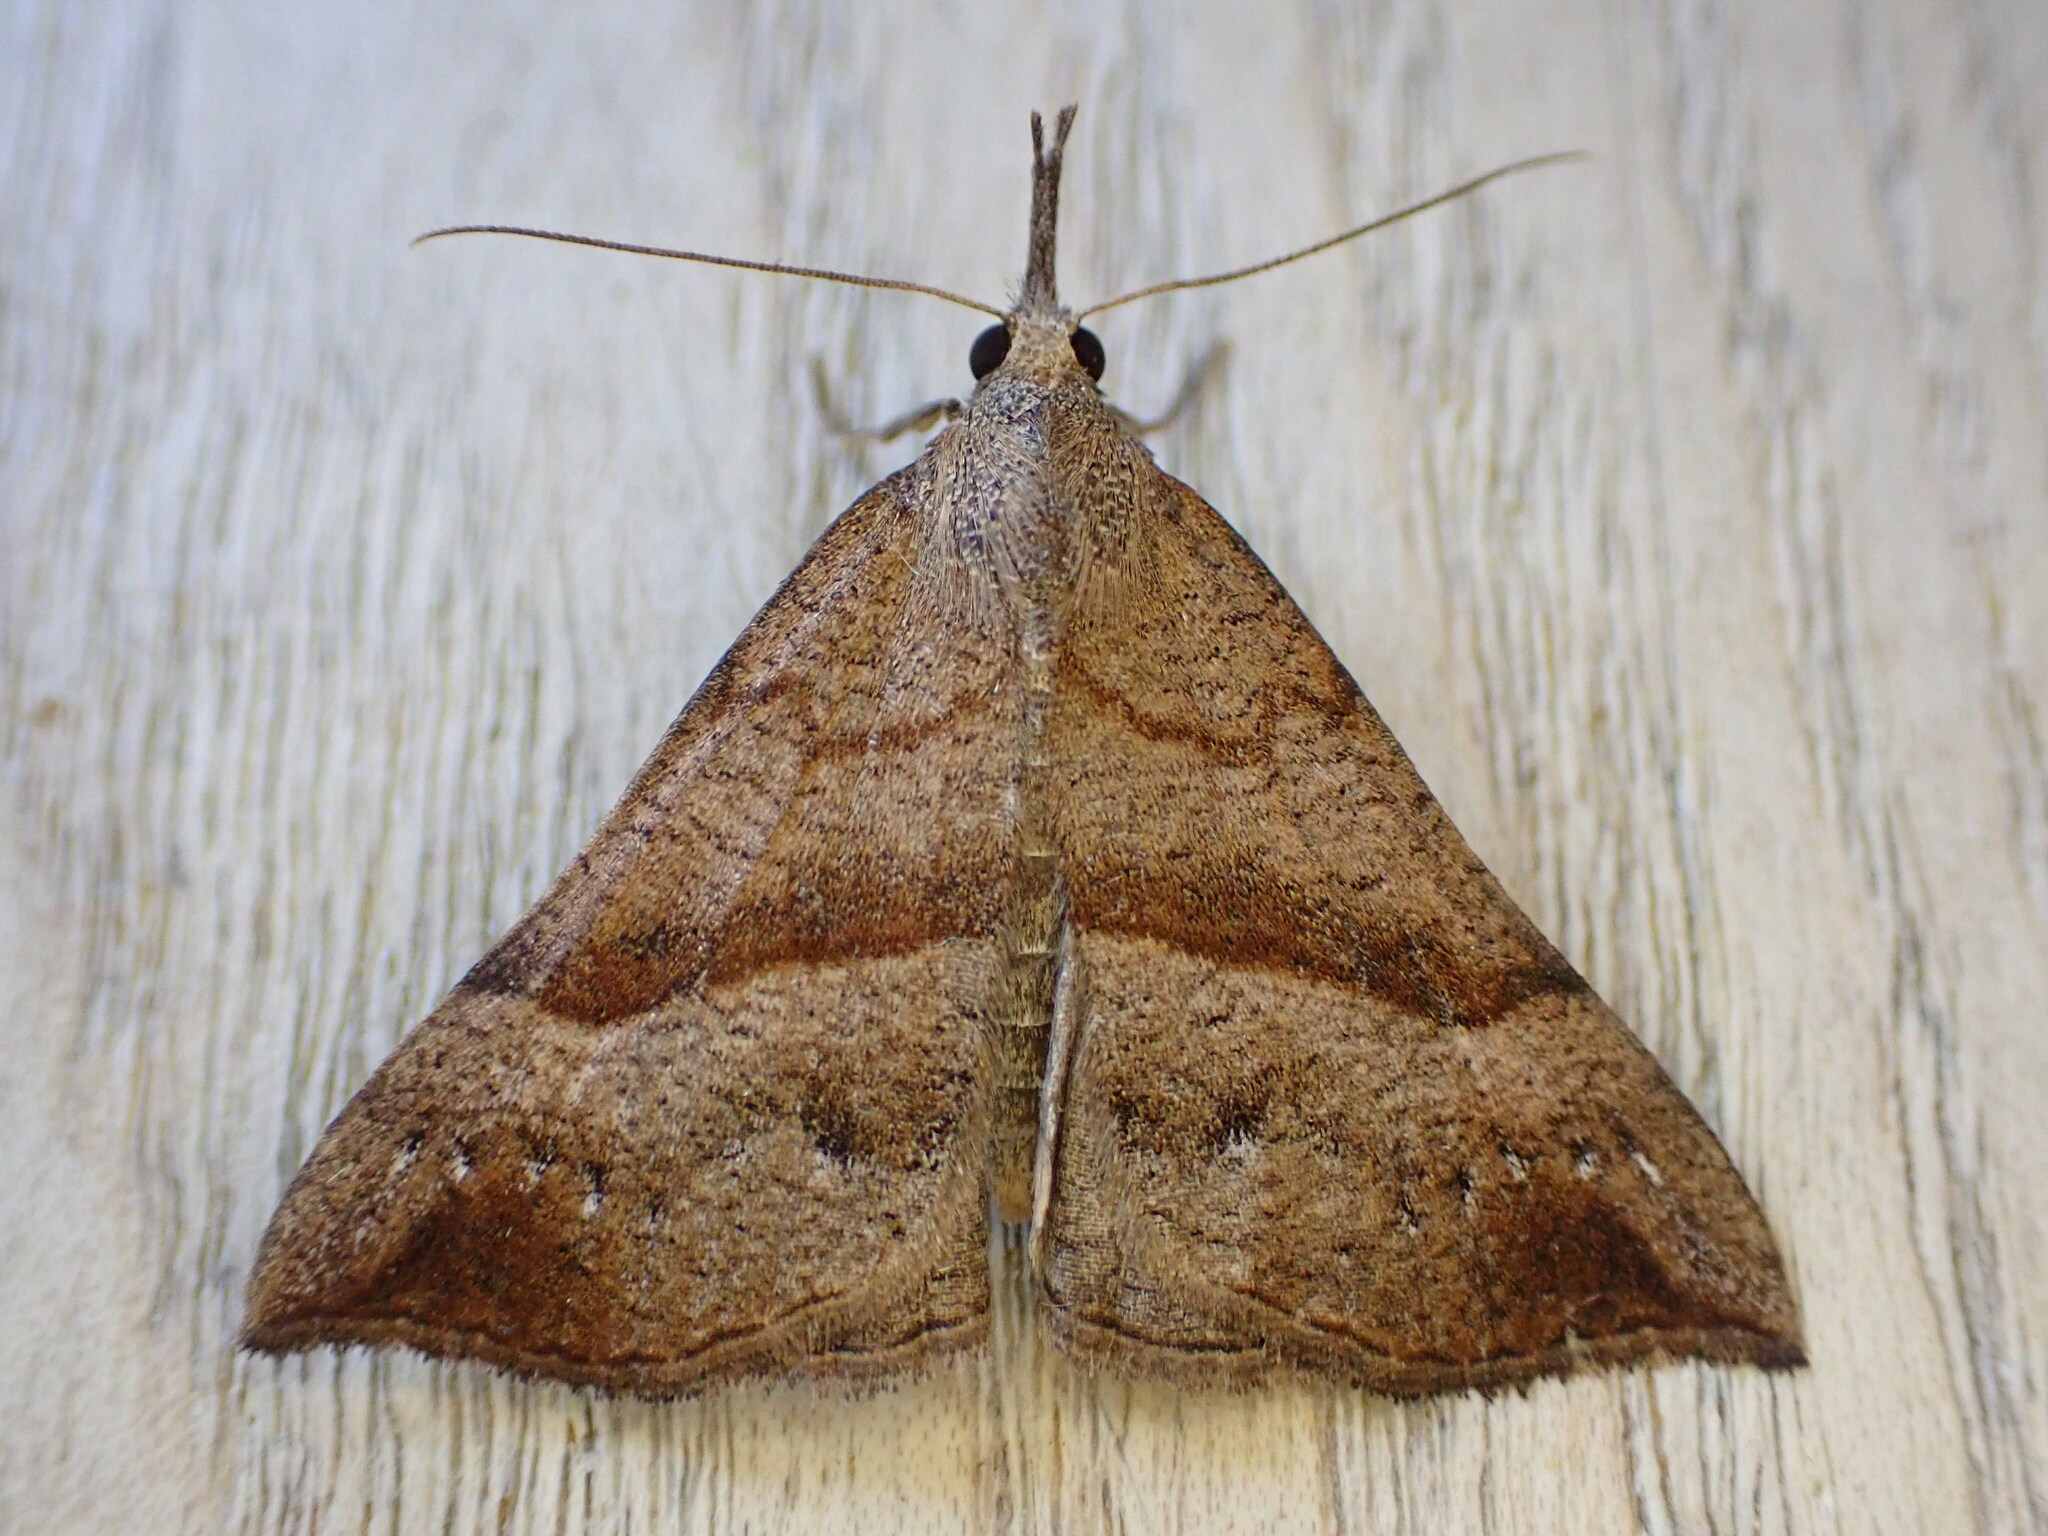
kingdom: Animalia
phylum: Arthropoda
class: Insecta
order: Lepidoptera
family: Erebidae
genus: Hypena
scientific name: Hypena proboscidalis
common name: Snout
